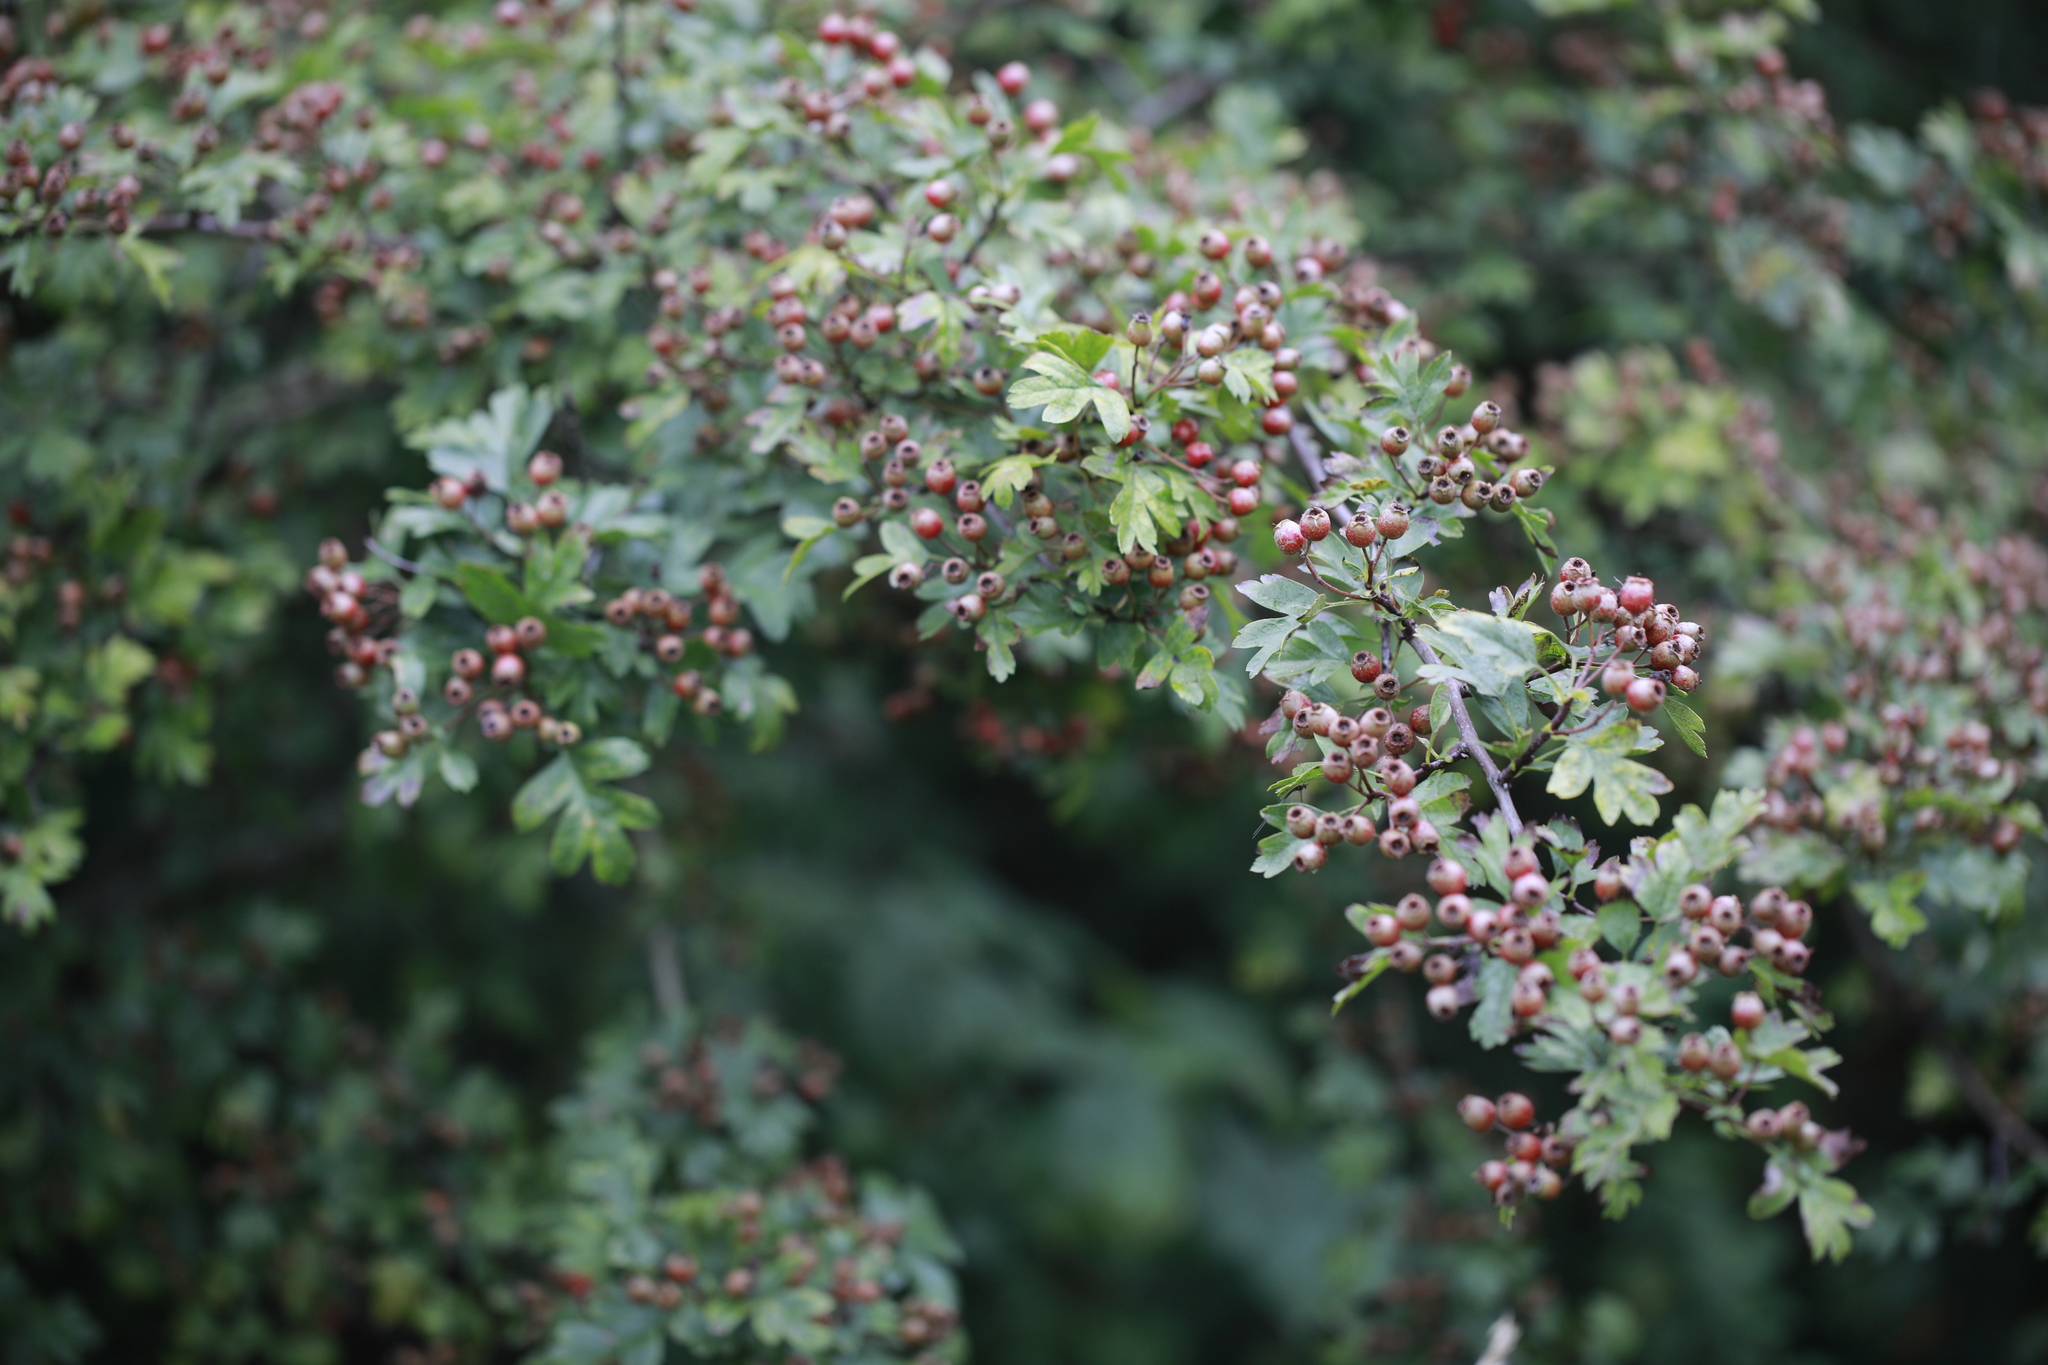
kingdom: Plantae
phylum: Tracheophyta
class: Magnoliopsida
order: Rosales
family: Rosaceae
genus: Crataegus
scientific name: Crataegus monogyna
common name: Hawthorn
